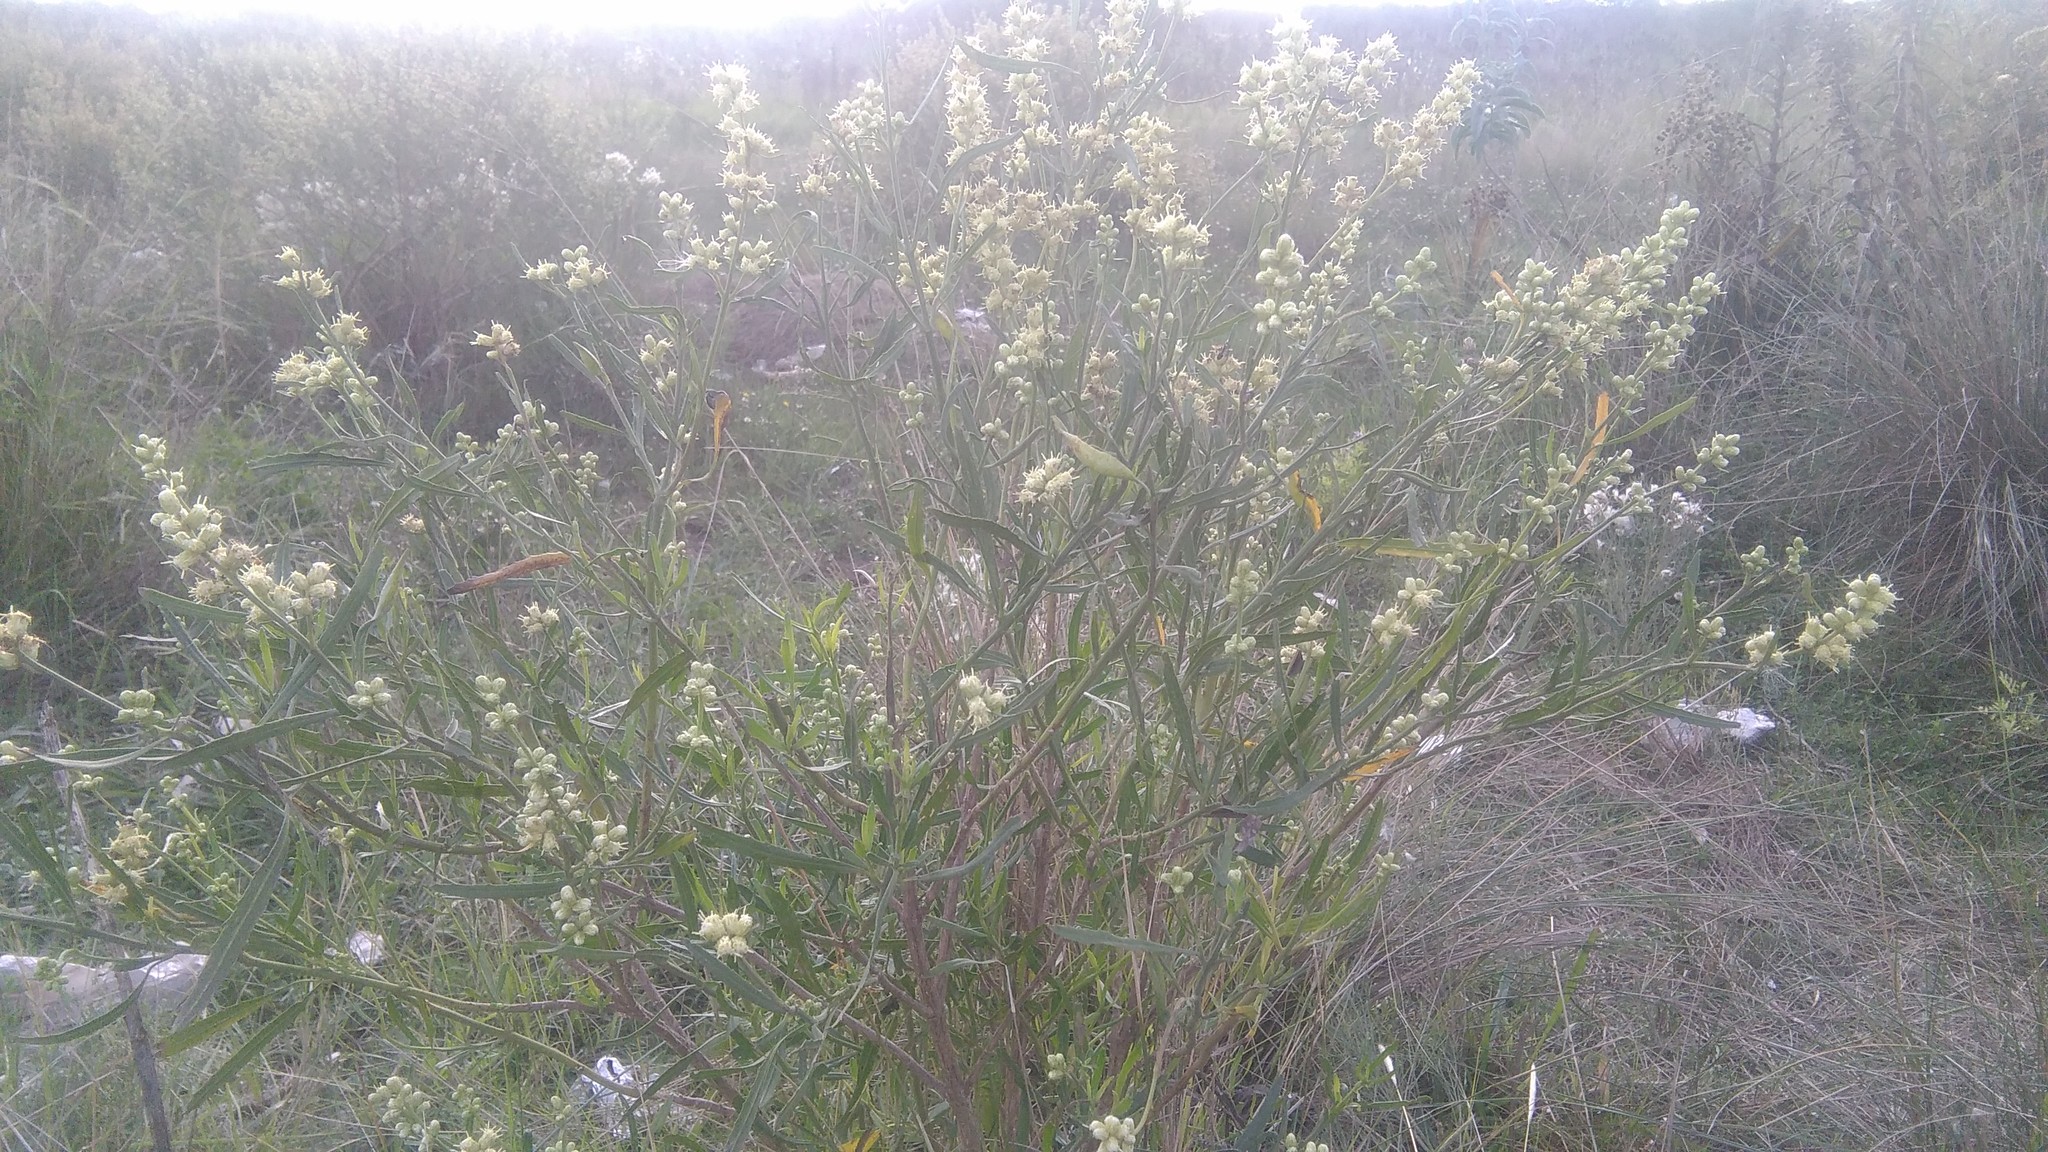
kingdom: Plantae
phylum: Tracheophyta
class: Magnoliopsida
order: Asterales
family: Asteraceae
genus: Baccharis
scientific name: Baccharis spicata
